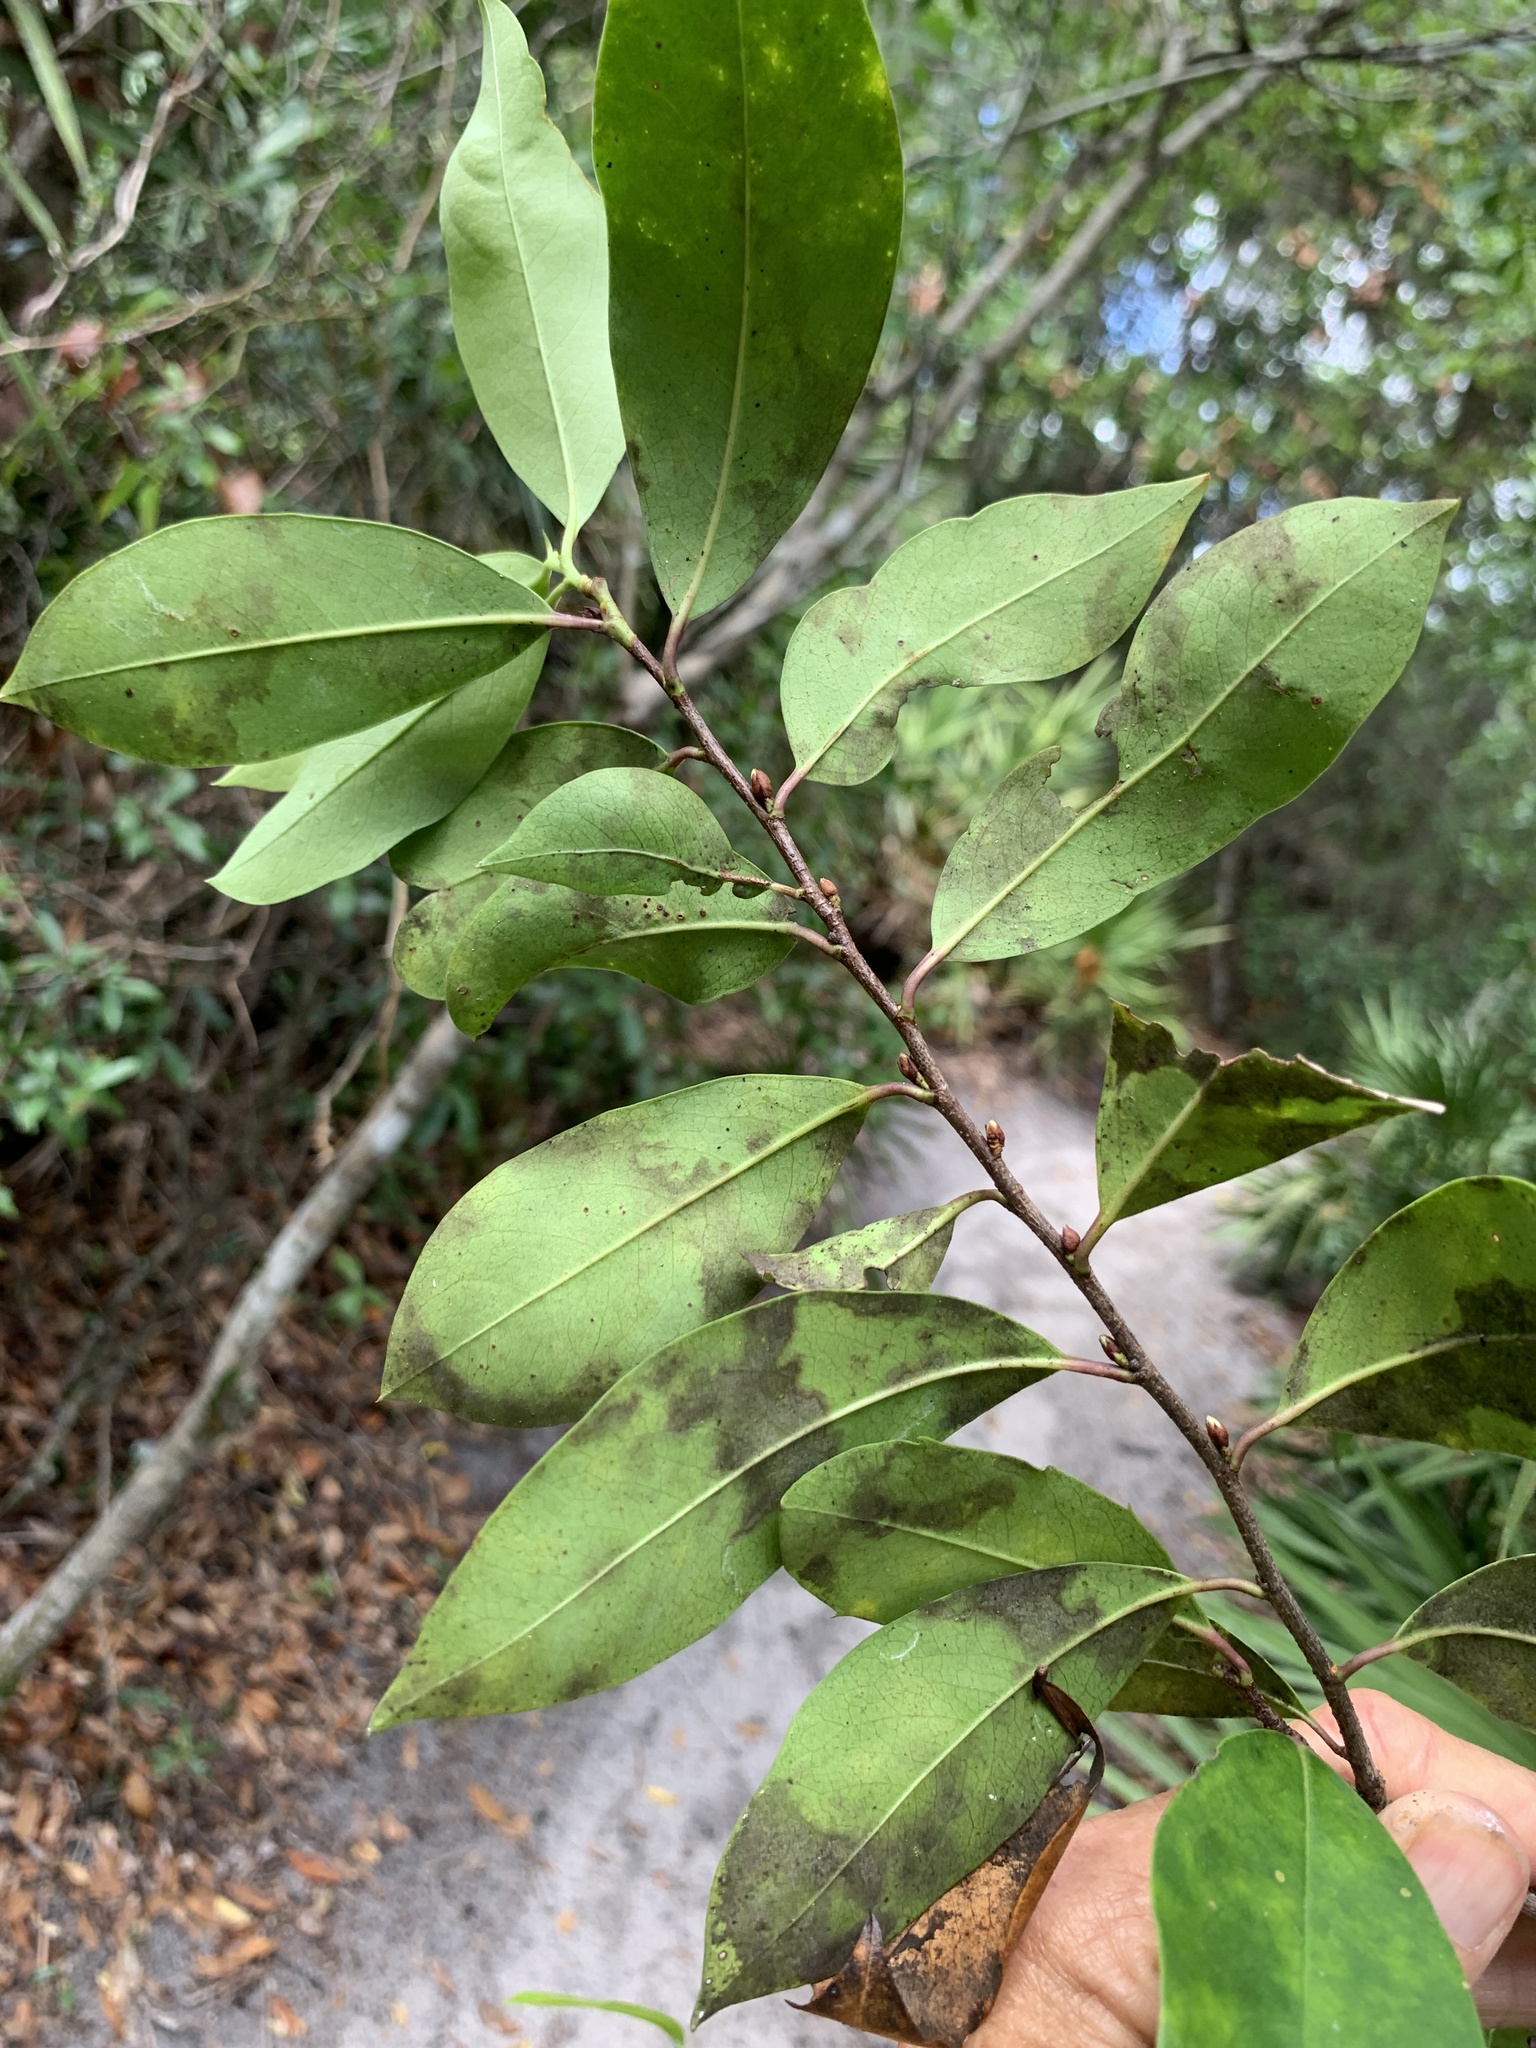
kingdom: Plantae
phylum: Tracheophyta
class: Magnoliopsida
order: Rosales
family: Rosaceae
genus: Prunus
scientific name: Prunus caroliniana
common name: Carolina laurel cherry
